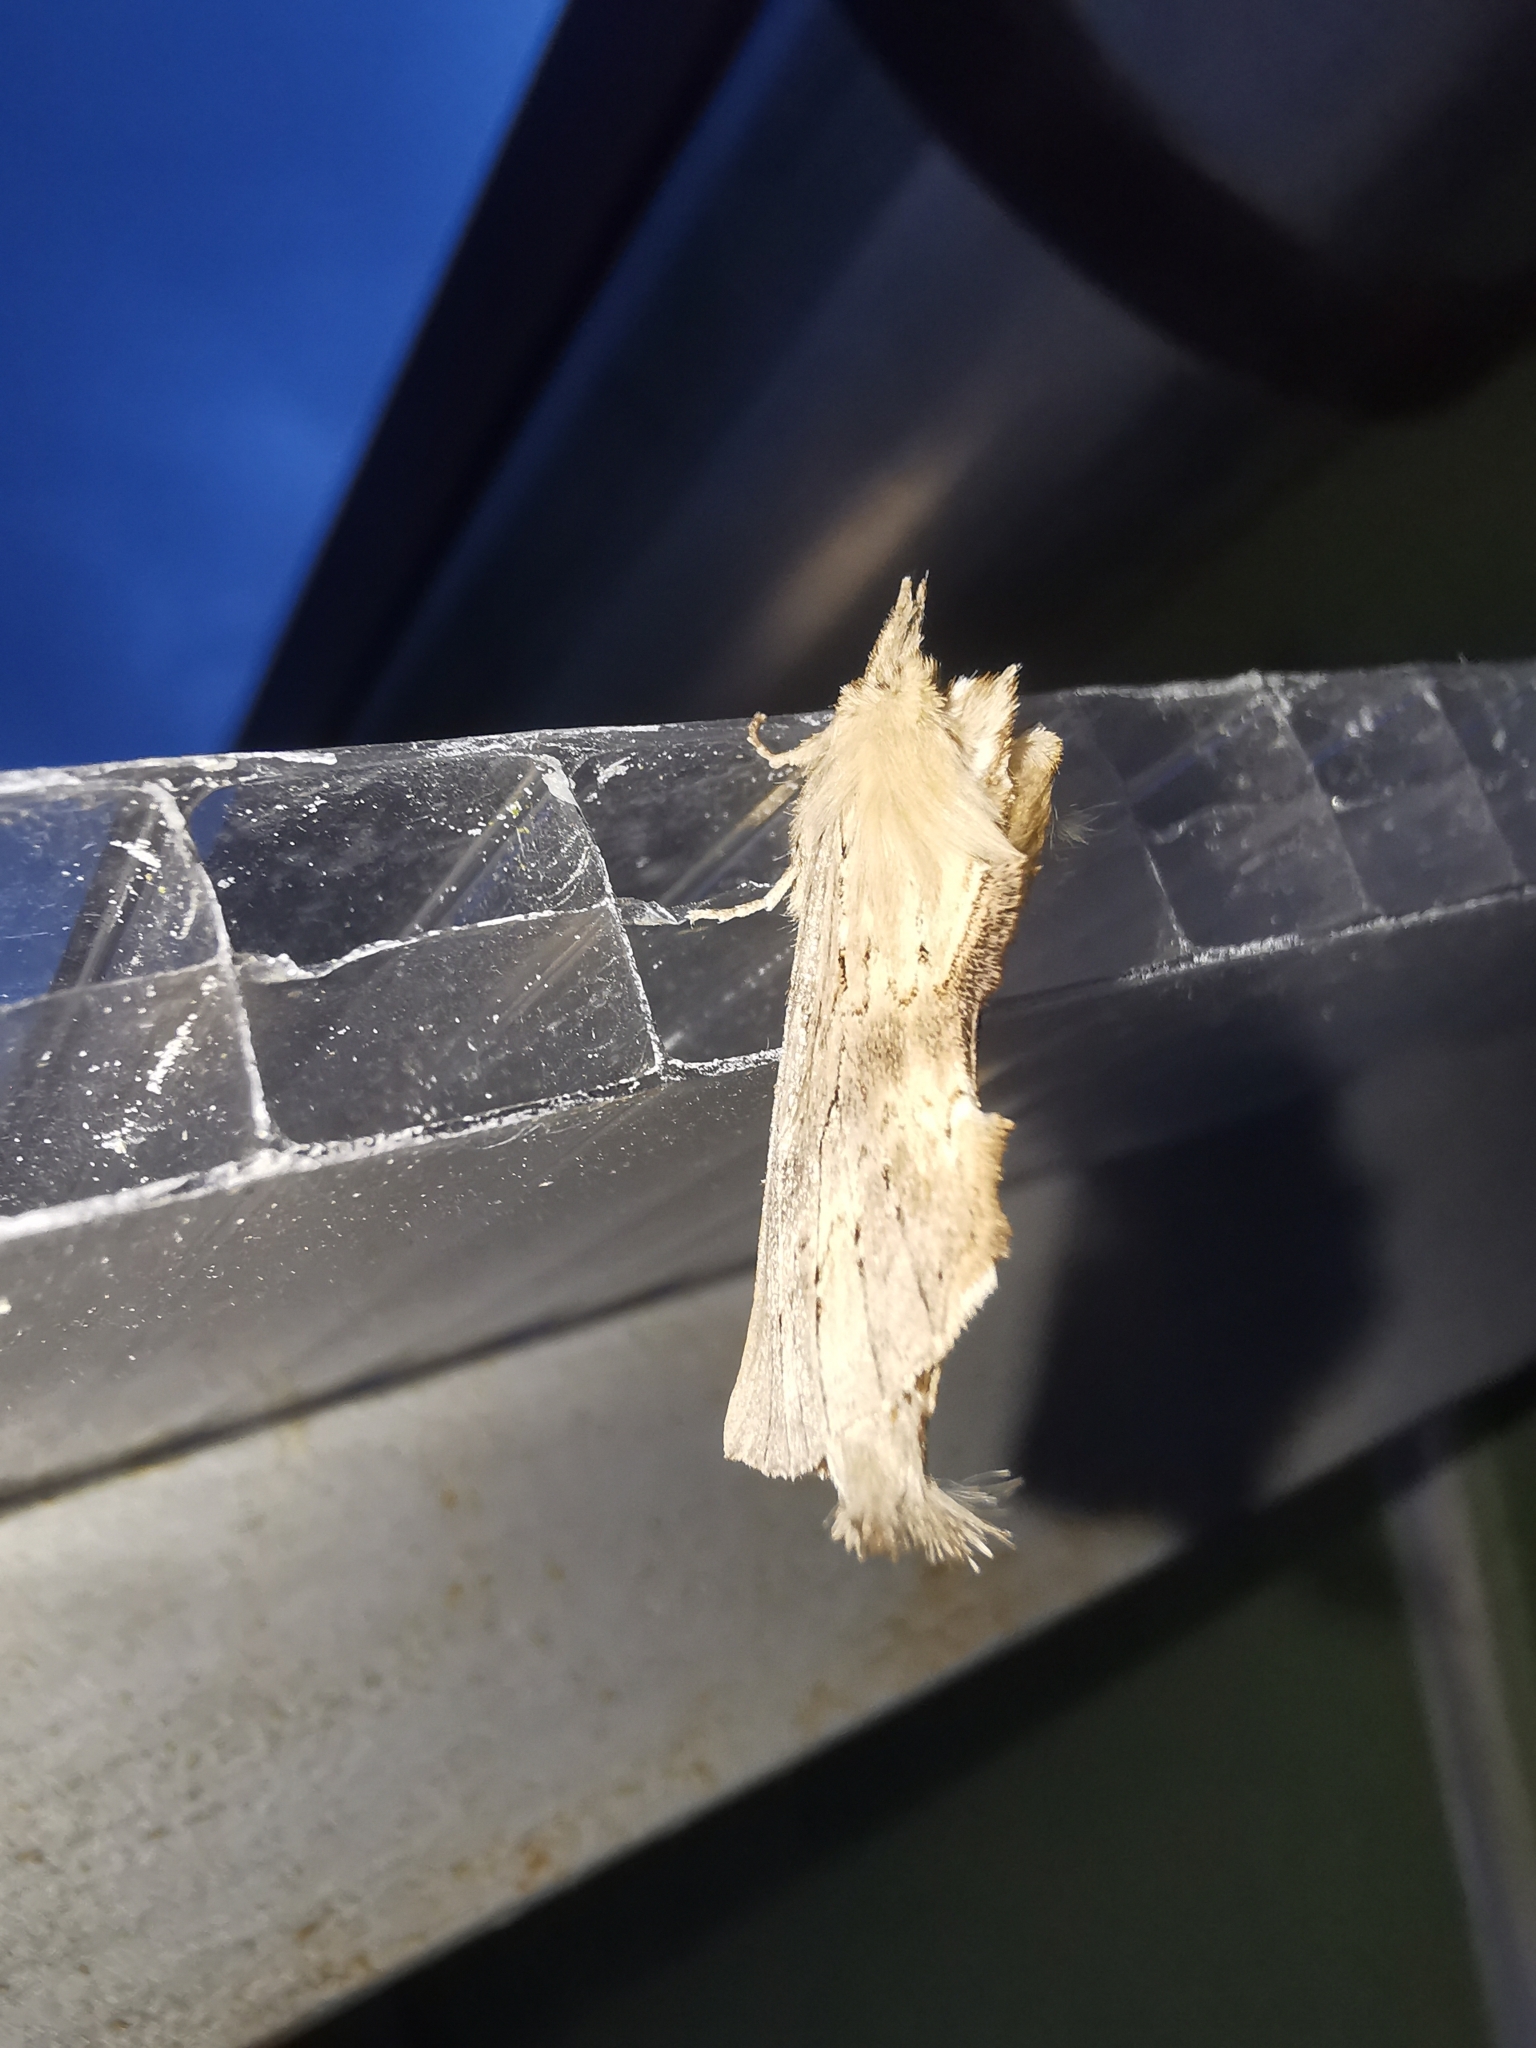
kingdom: Animalia
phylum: Arthropoda
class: Insecta
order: Lepidoptera
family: Notodontidae
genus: Pterostoma
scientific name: Pterostoma palpina
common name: Pale prominent
